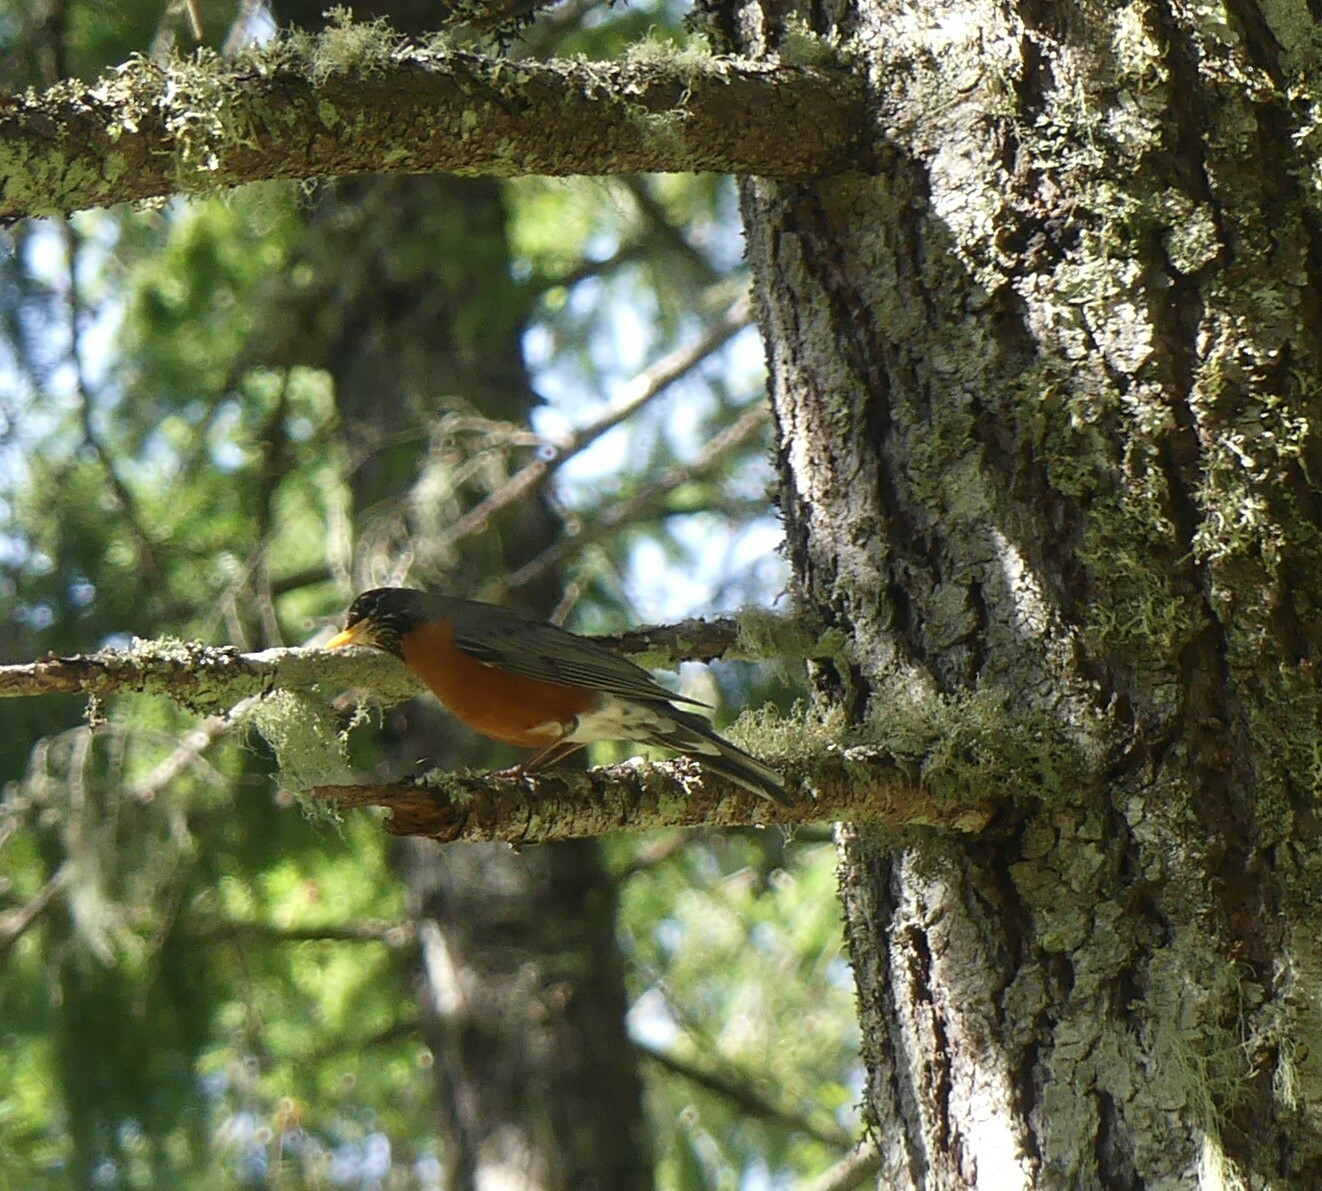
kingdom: Animalia
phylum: Chordata
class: Aves
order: Passeriformes
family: Turdidae
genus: Turdus
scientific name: Turdus migratorius
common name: American robin
